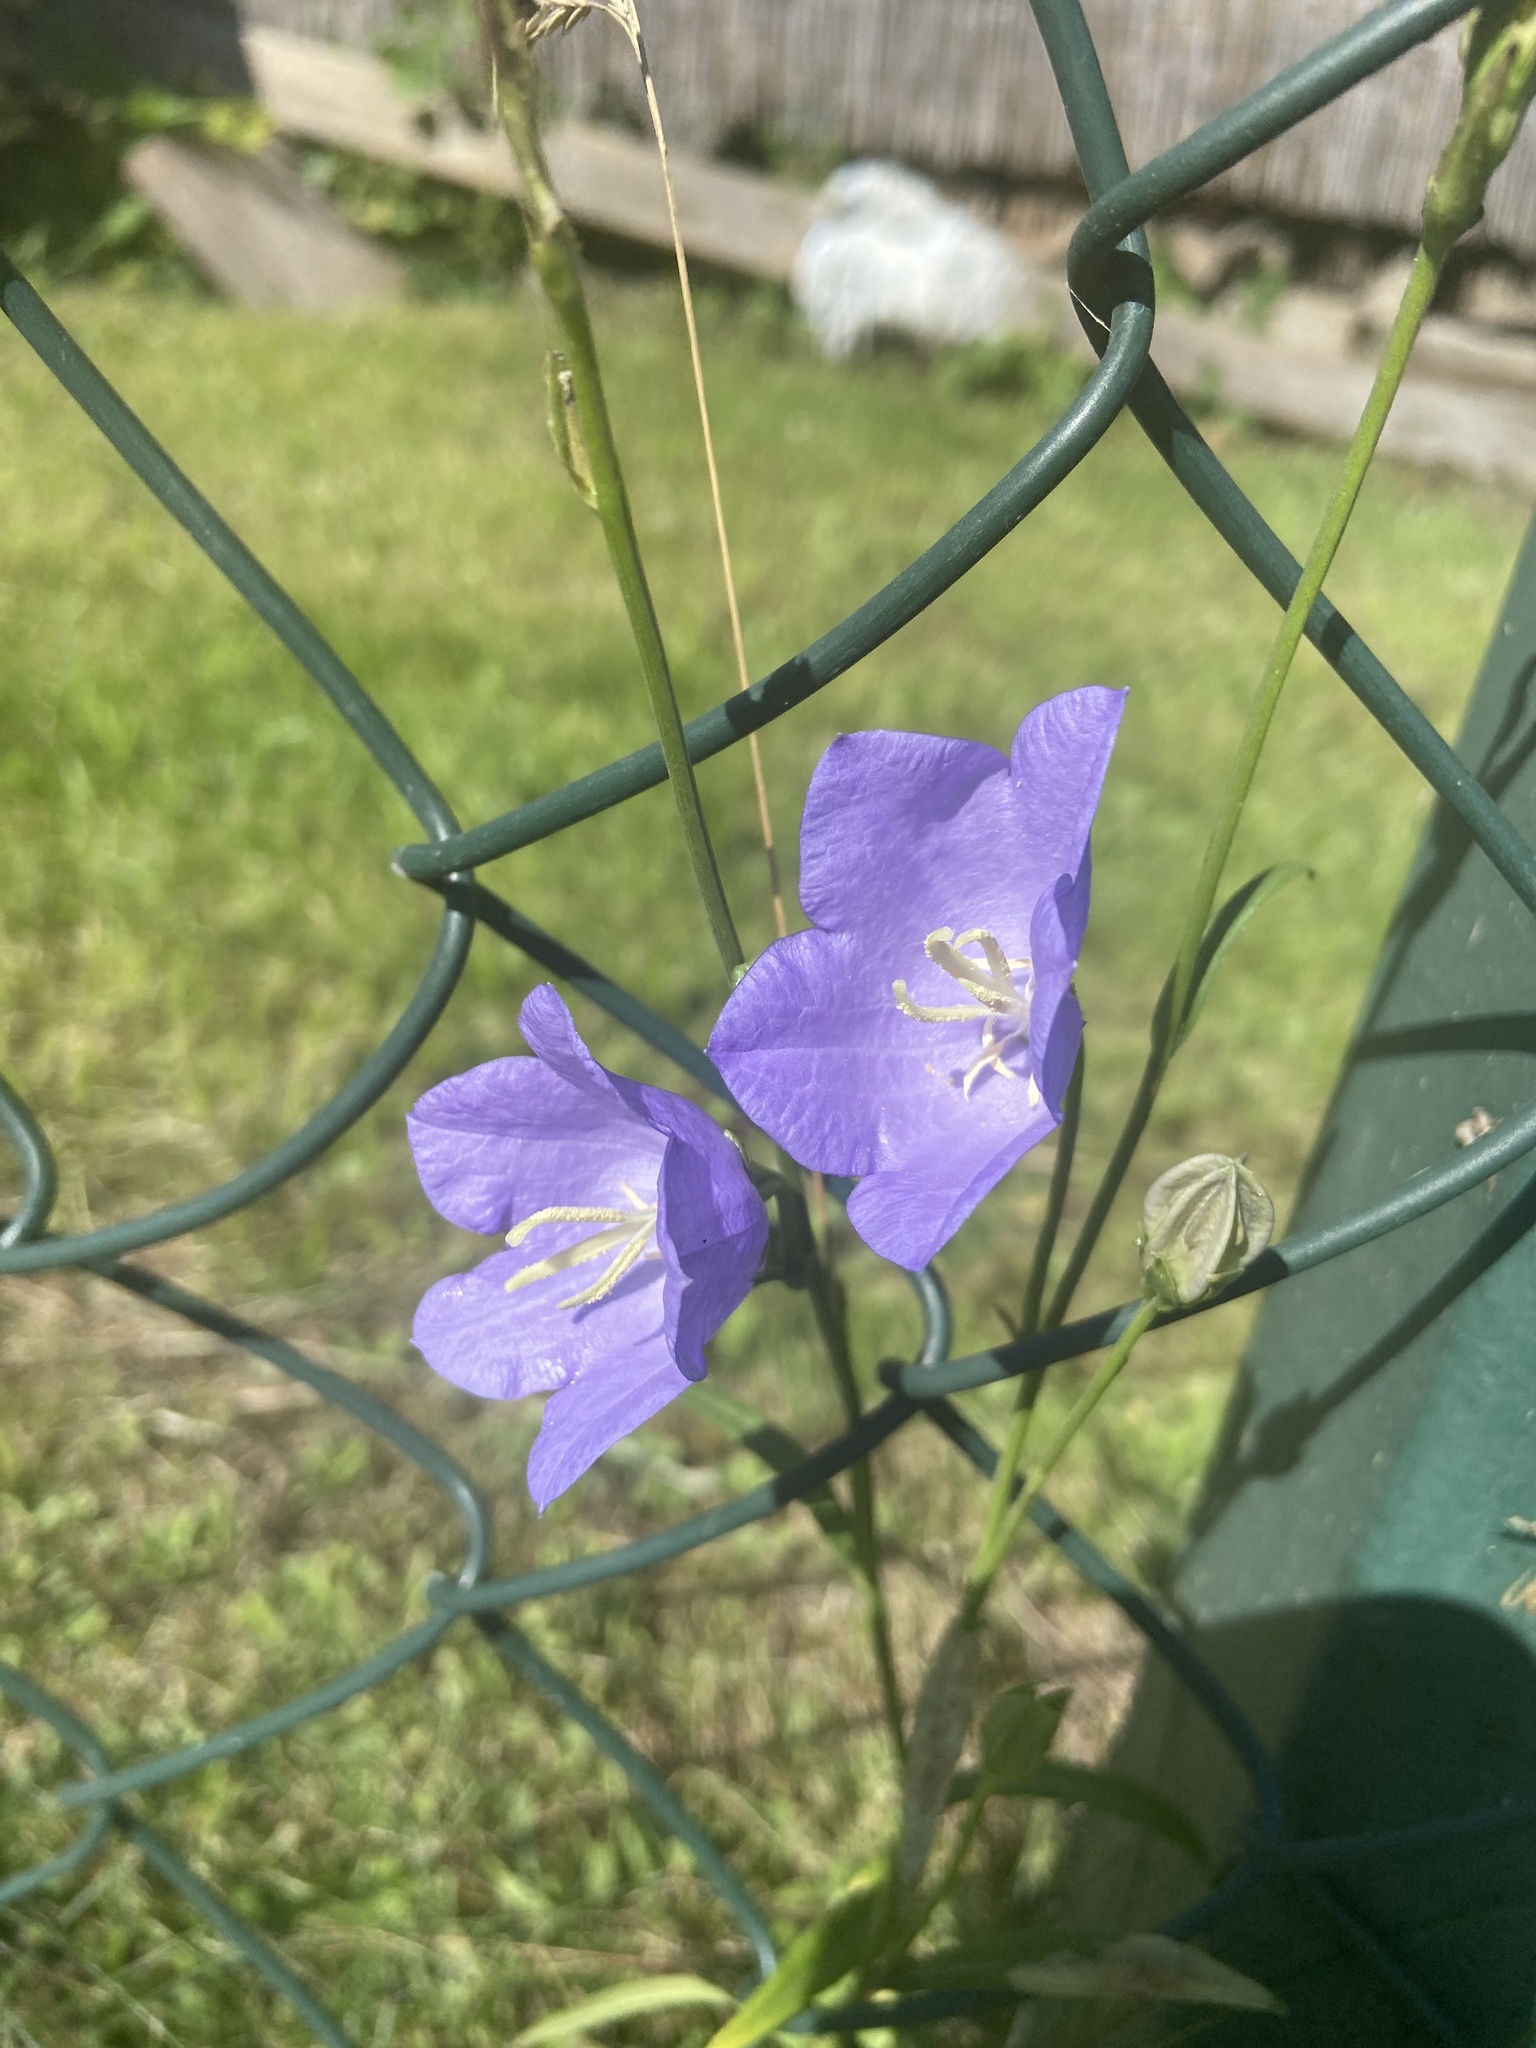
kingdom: Plantae
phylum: Tracheophyta
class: Magnoliopsida
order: Asterales
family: Campanulaceae
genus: Campanula
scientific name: Campanula persicifolia
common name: Peach-leaved bellflower
